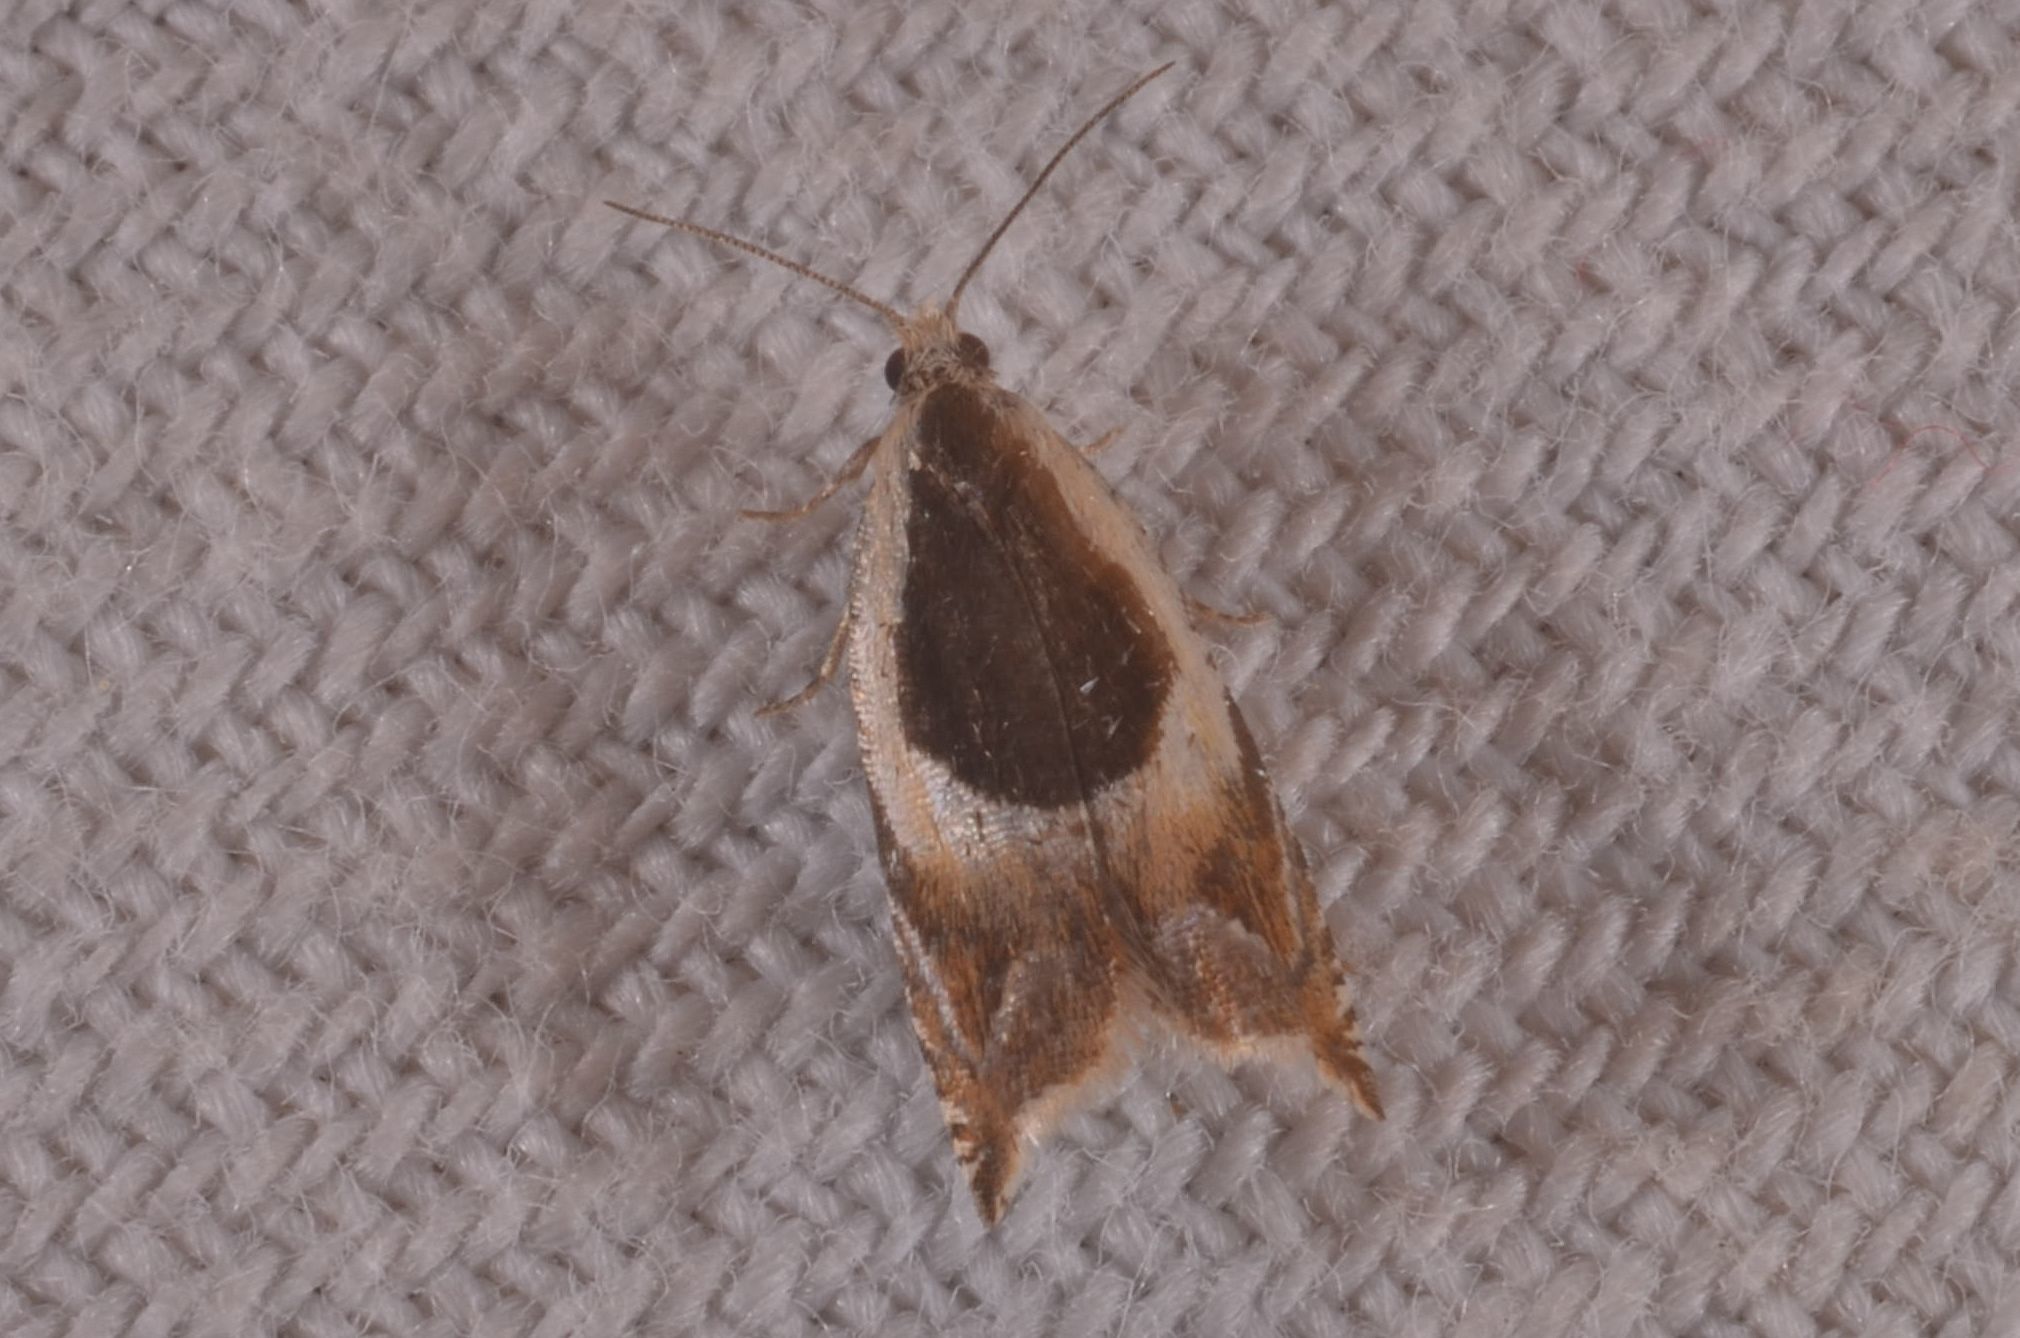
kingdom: Animalia
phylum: Arthropoda
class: Insecta
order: Lepidoptera
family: Tortricidae
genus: Ancylis
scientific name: Ancylis badiana
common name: Common roller
